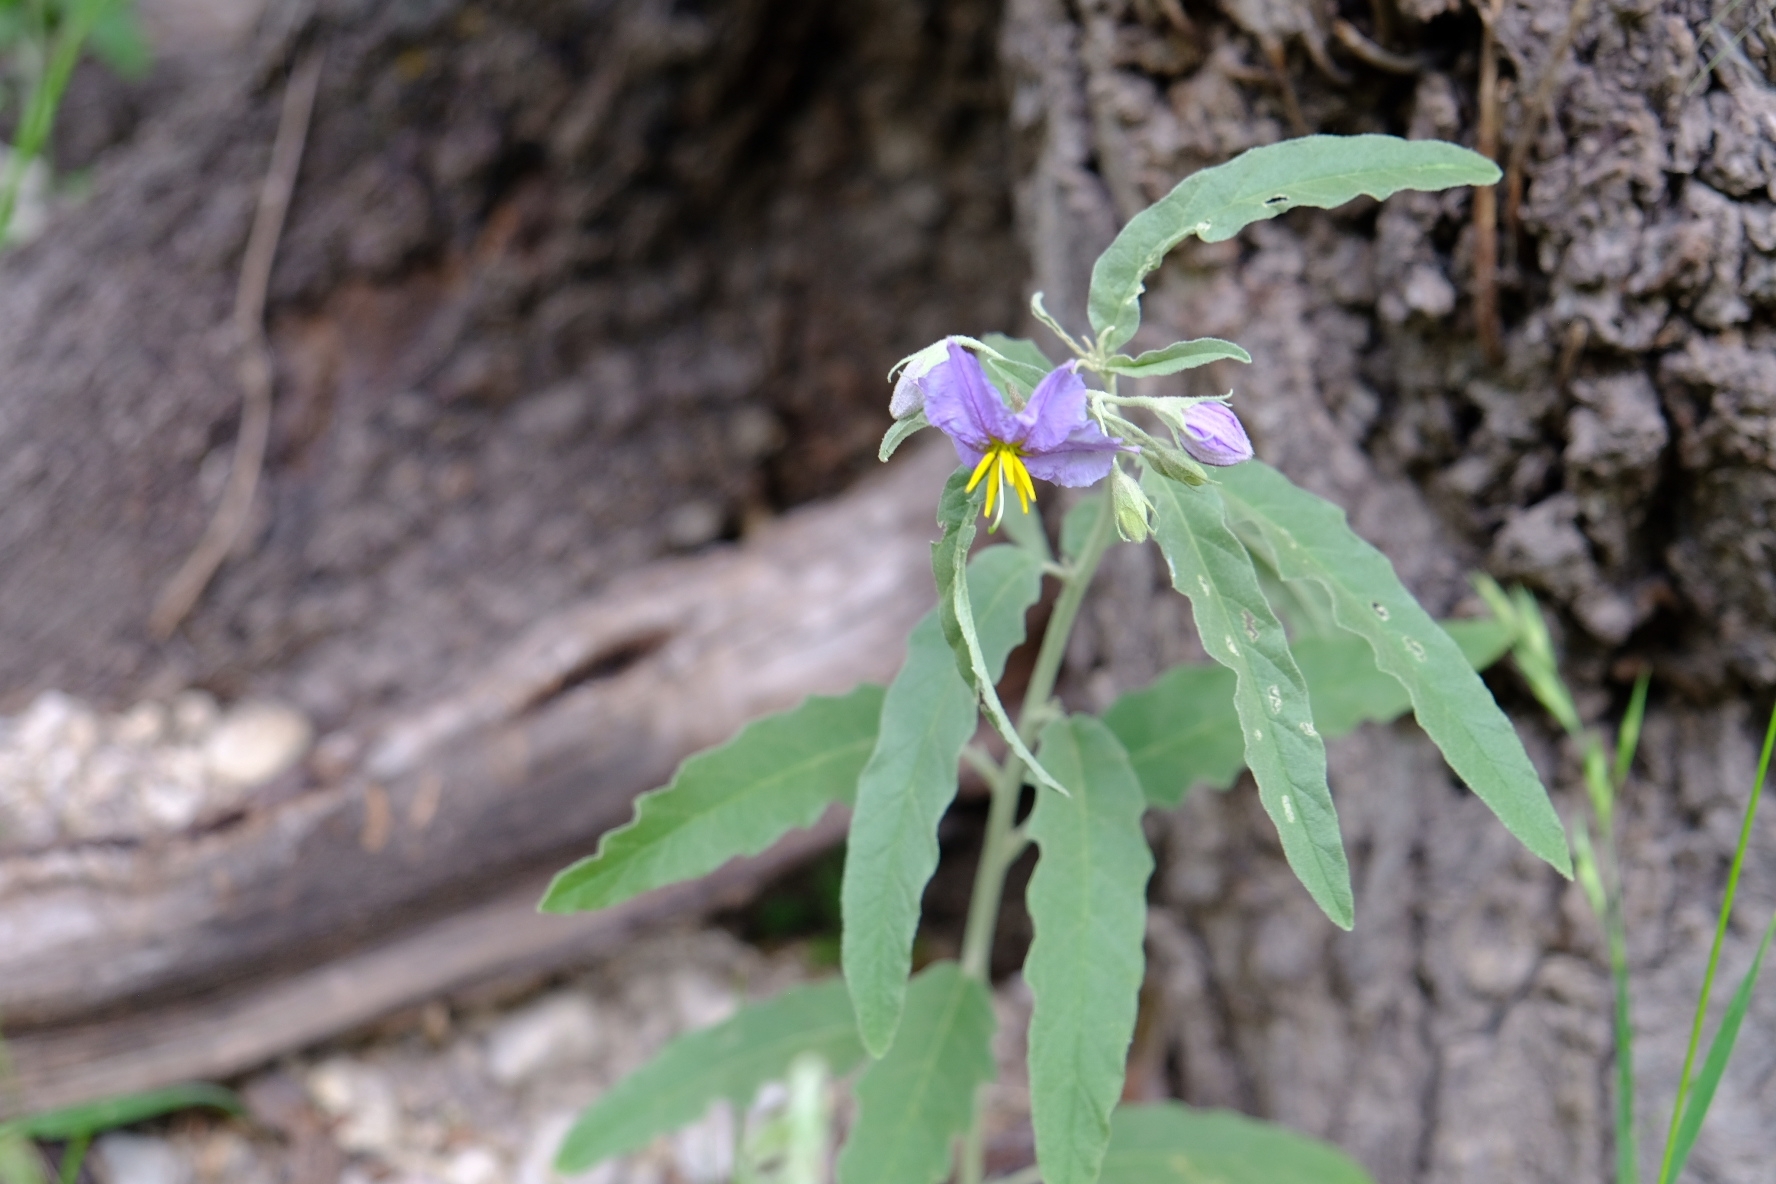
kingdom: Plantae
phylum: Tracheophyta
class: Magnoliopsida
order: Solanales
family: Solanaceae
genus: Solanum
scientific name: Solanum elaeagnifolium
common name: Silverleaf nightshade
